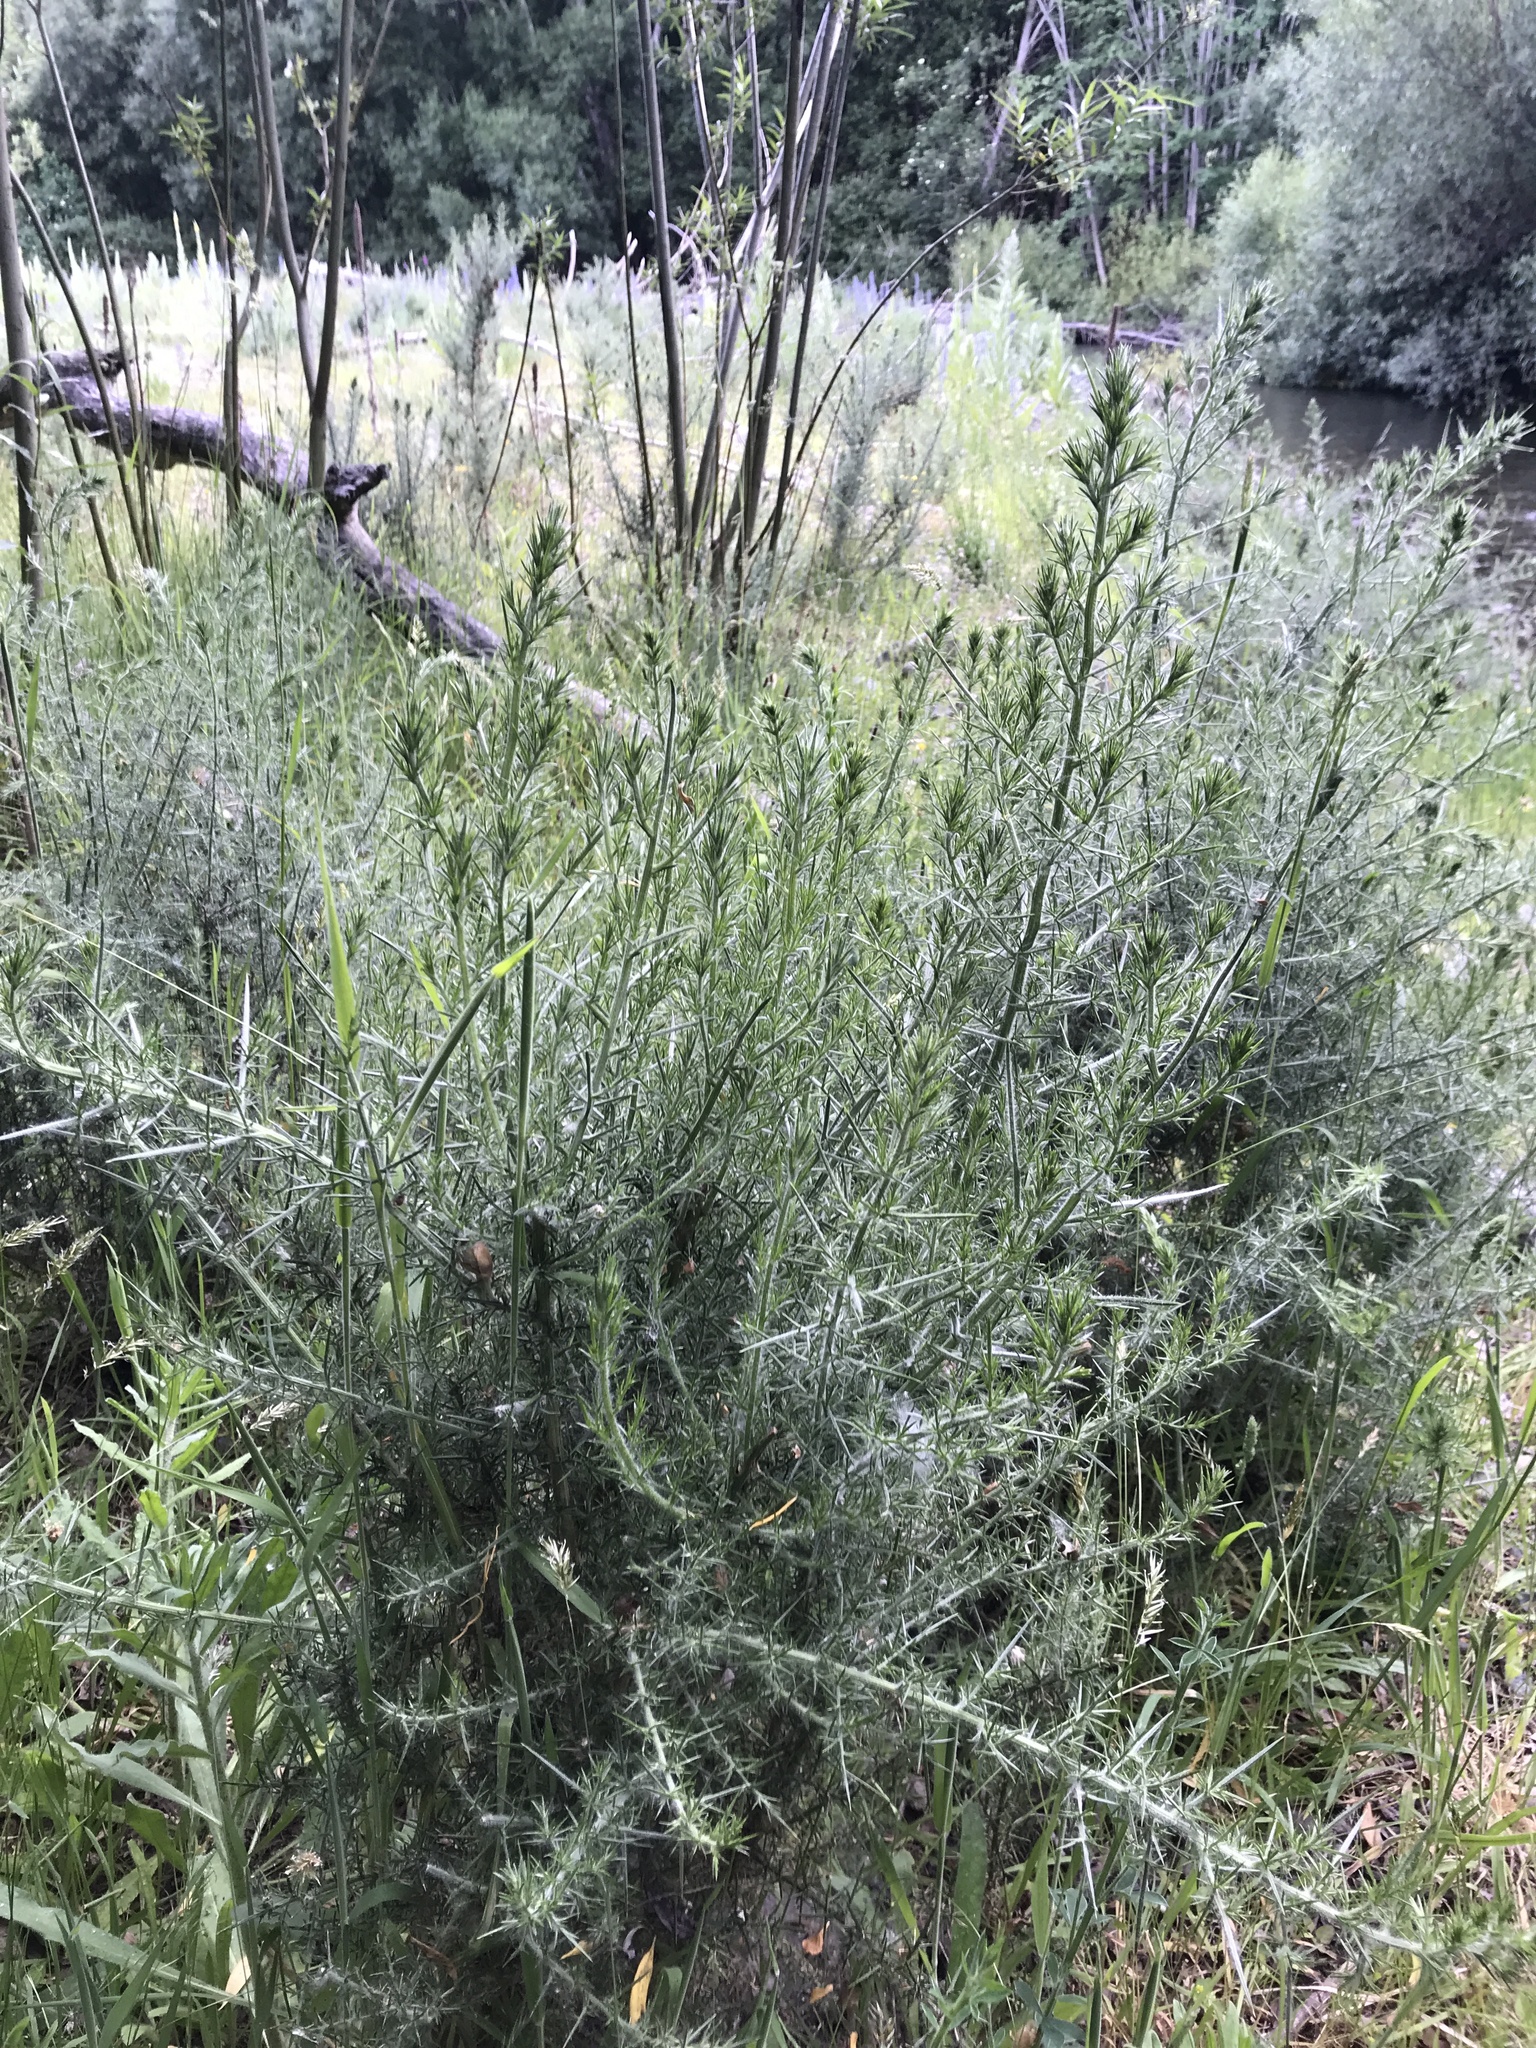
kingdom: Plantae
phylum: Tracheophyta
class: Magnoliopsida
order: Fabales
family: Fabaceae
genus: Ulex
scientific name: Ulex europaeus
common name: Common gorse
